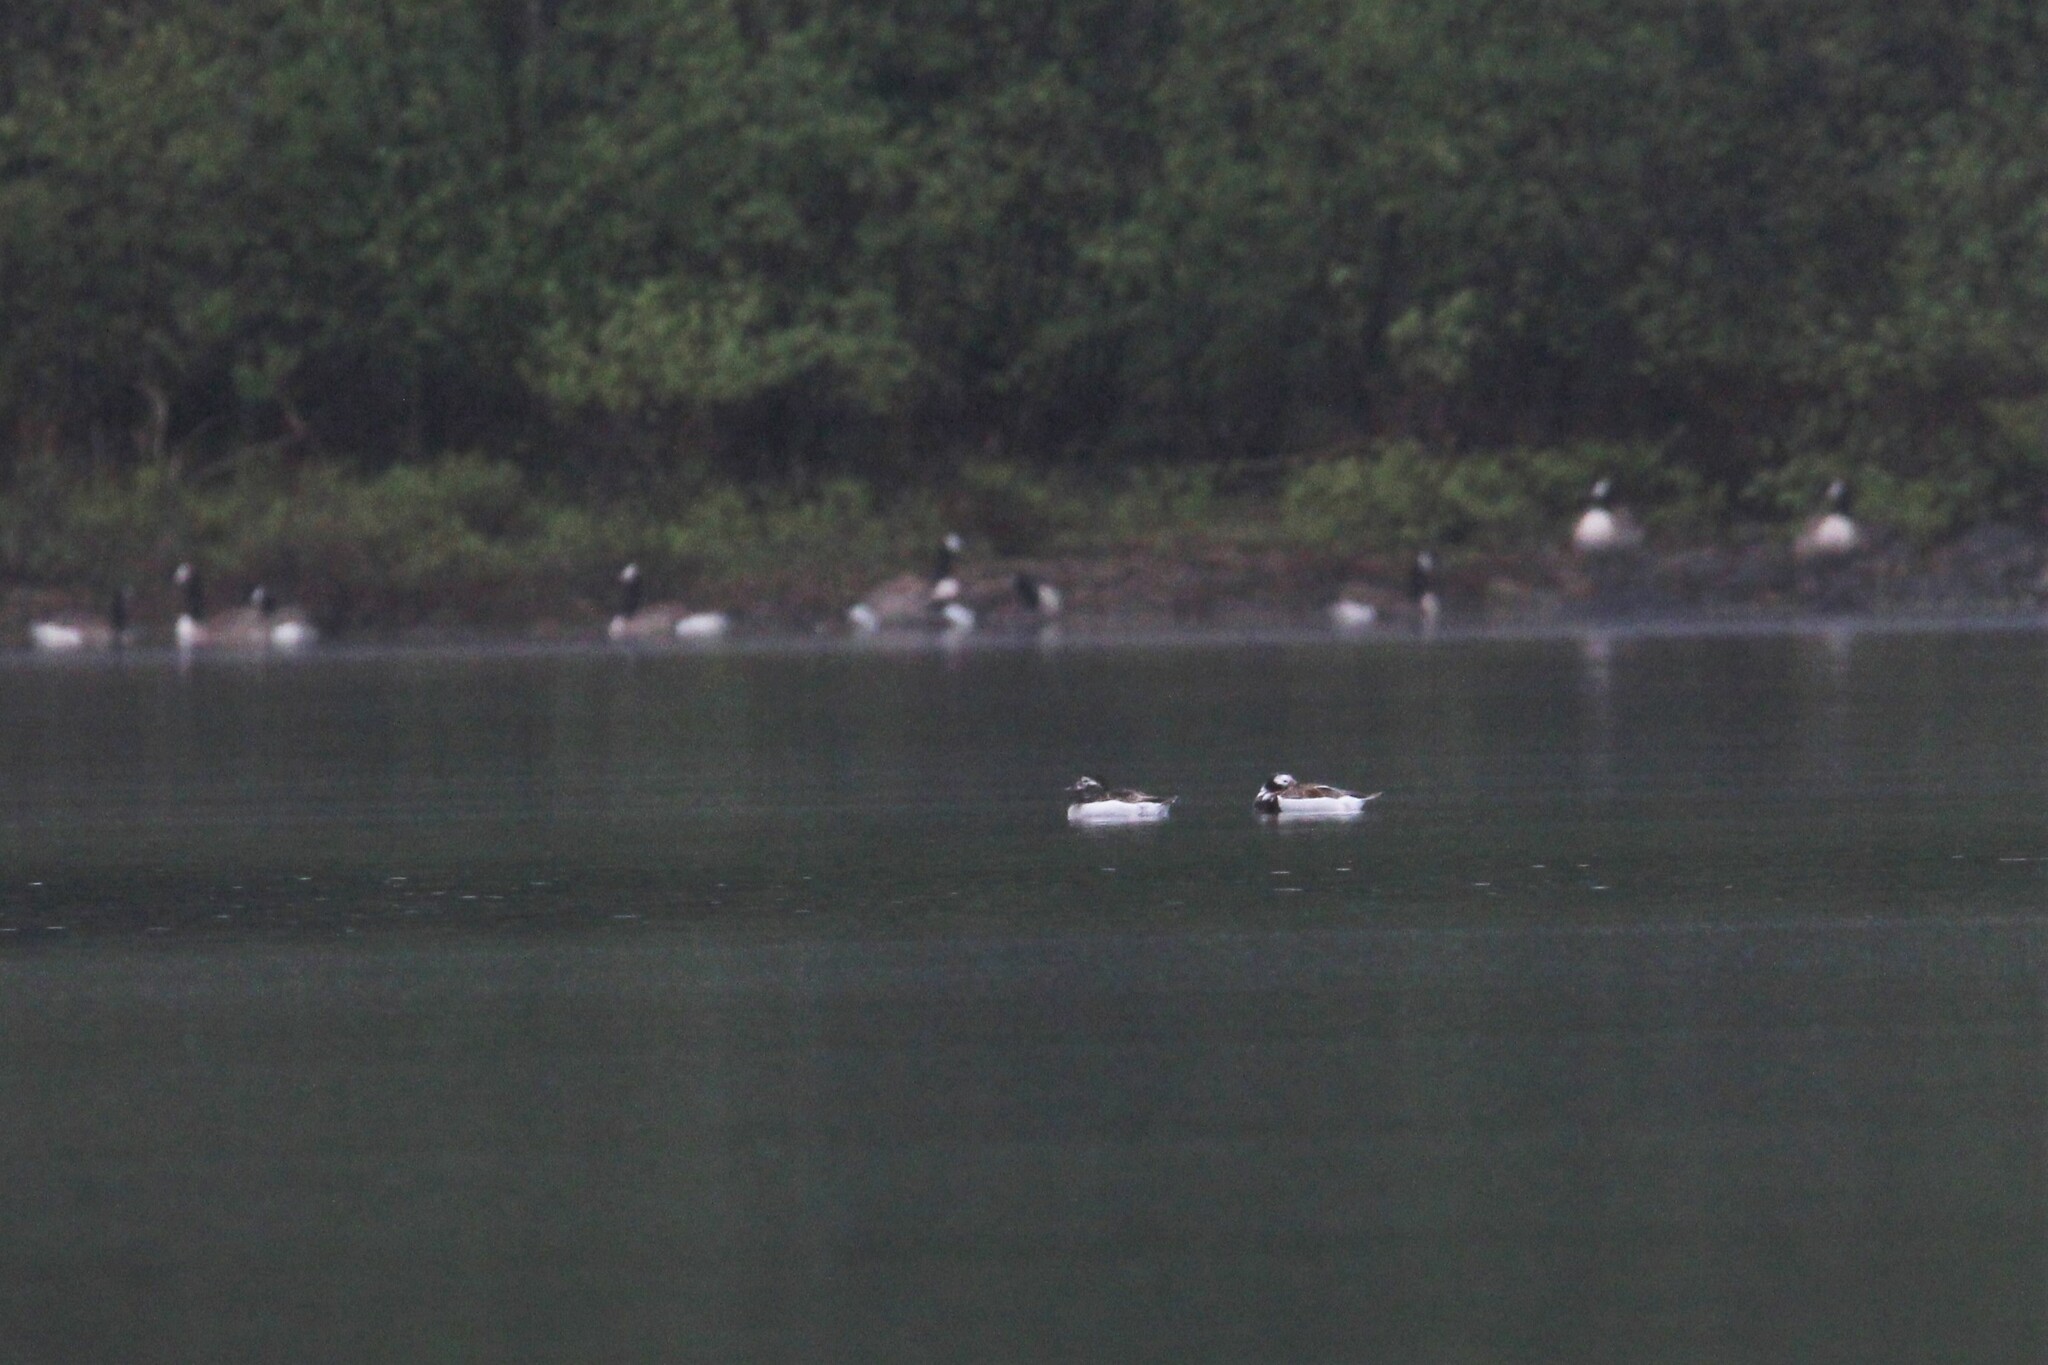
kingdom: Animalia
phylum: Chordata
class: Aves
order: Anseriformes
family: Anatidae
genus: Clangula
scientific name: Clangula hyemalis
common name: Long-tailed duck
